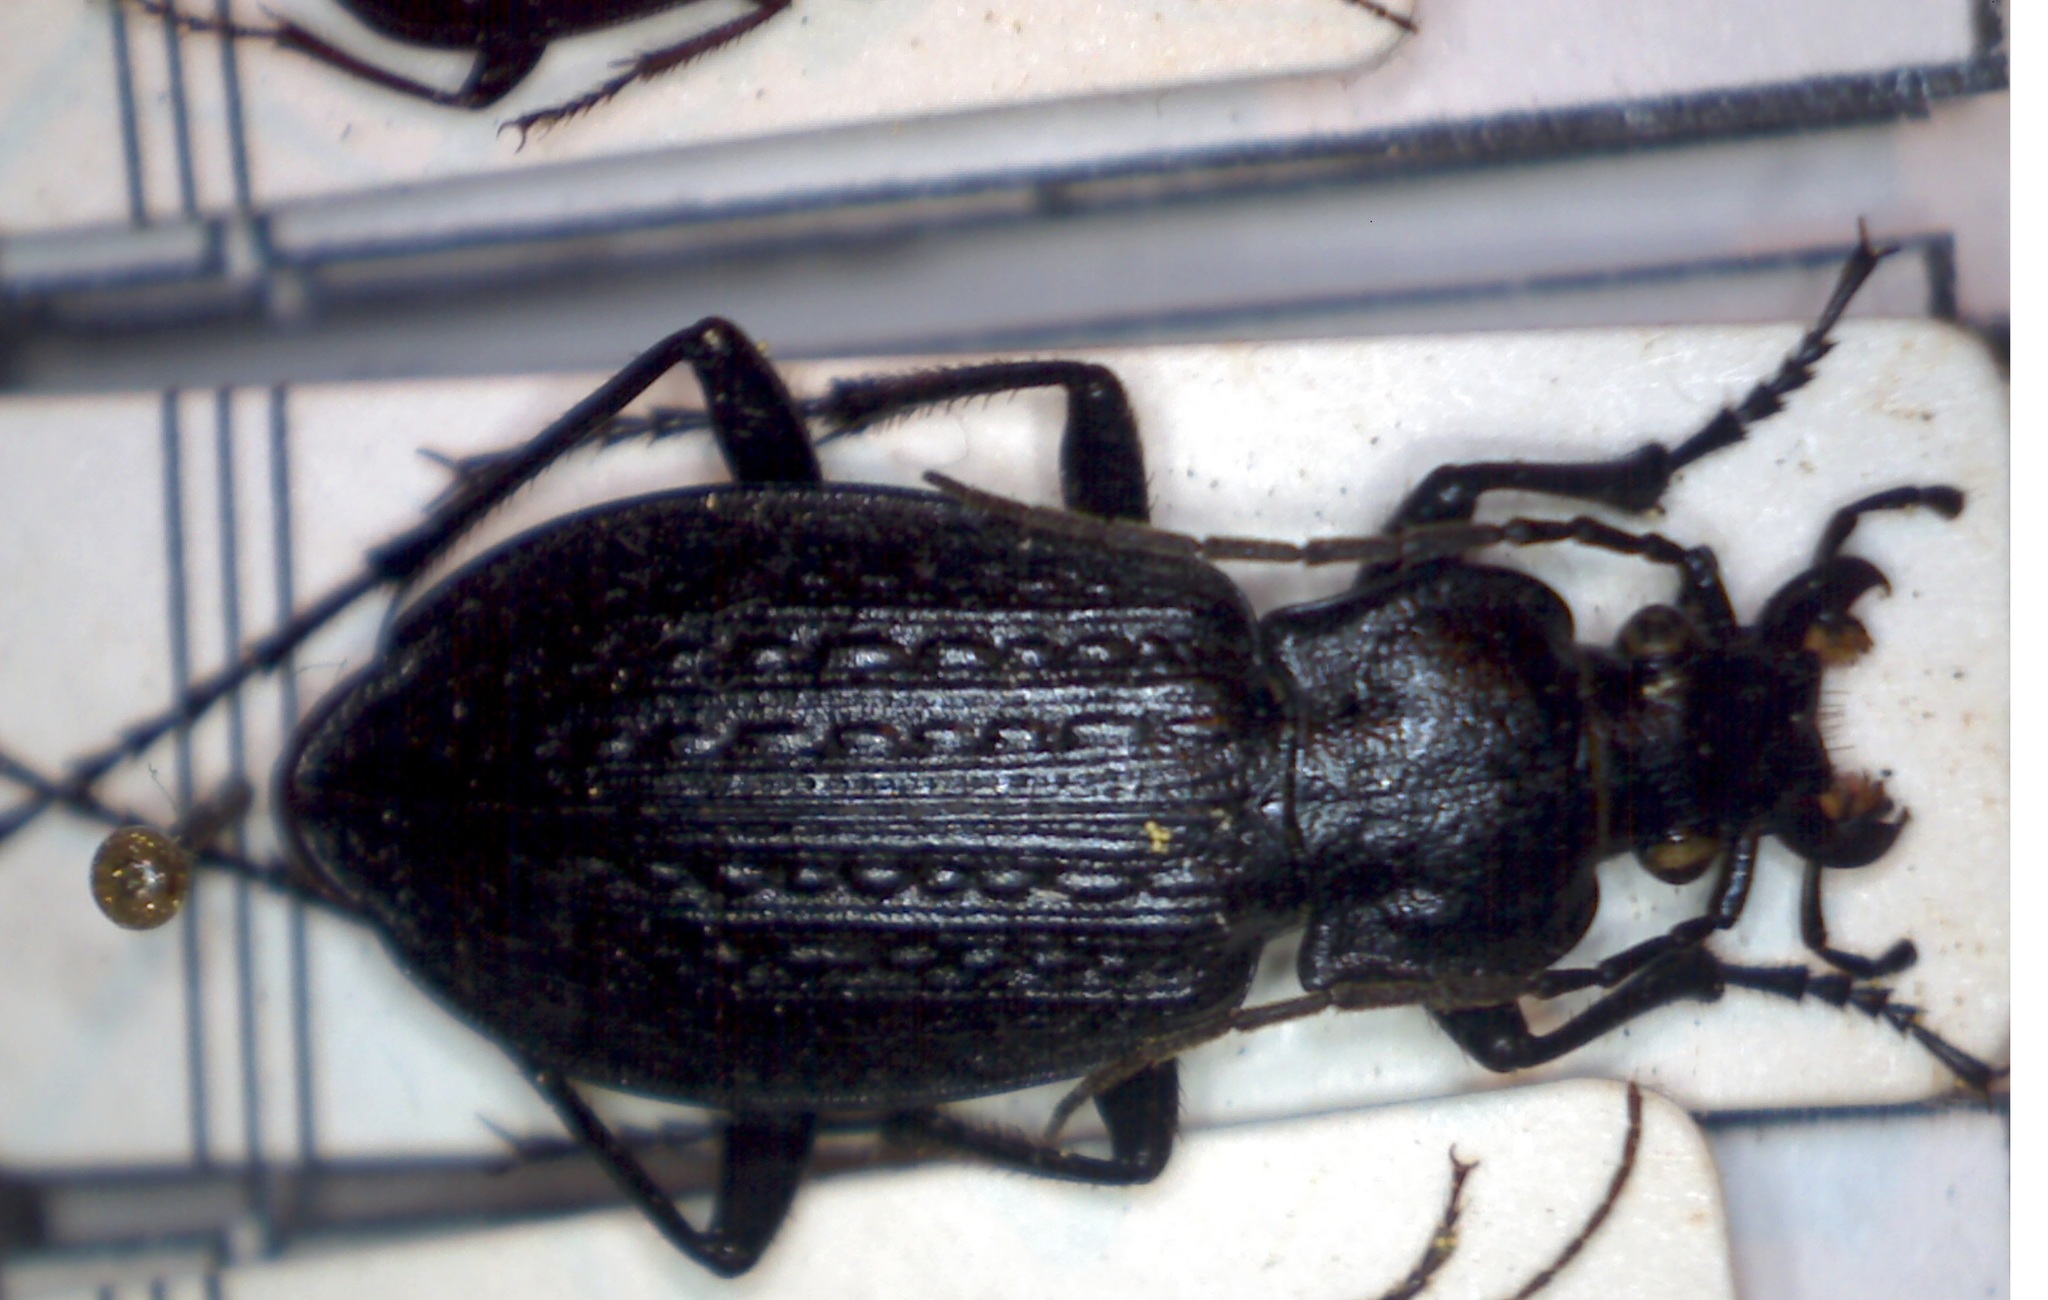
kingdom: Animalia
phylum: Arthropoda
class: Insecta
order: Coleoptera
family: Carabidae
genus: Carabus
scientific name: Carabus granulatus
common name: Granulate ground beetle
